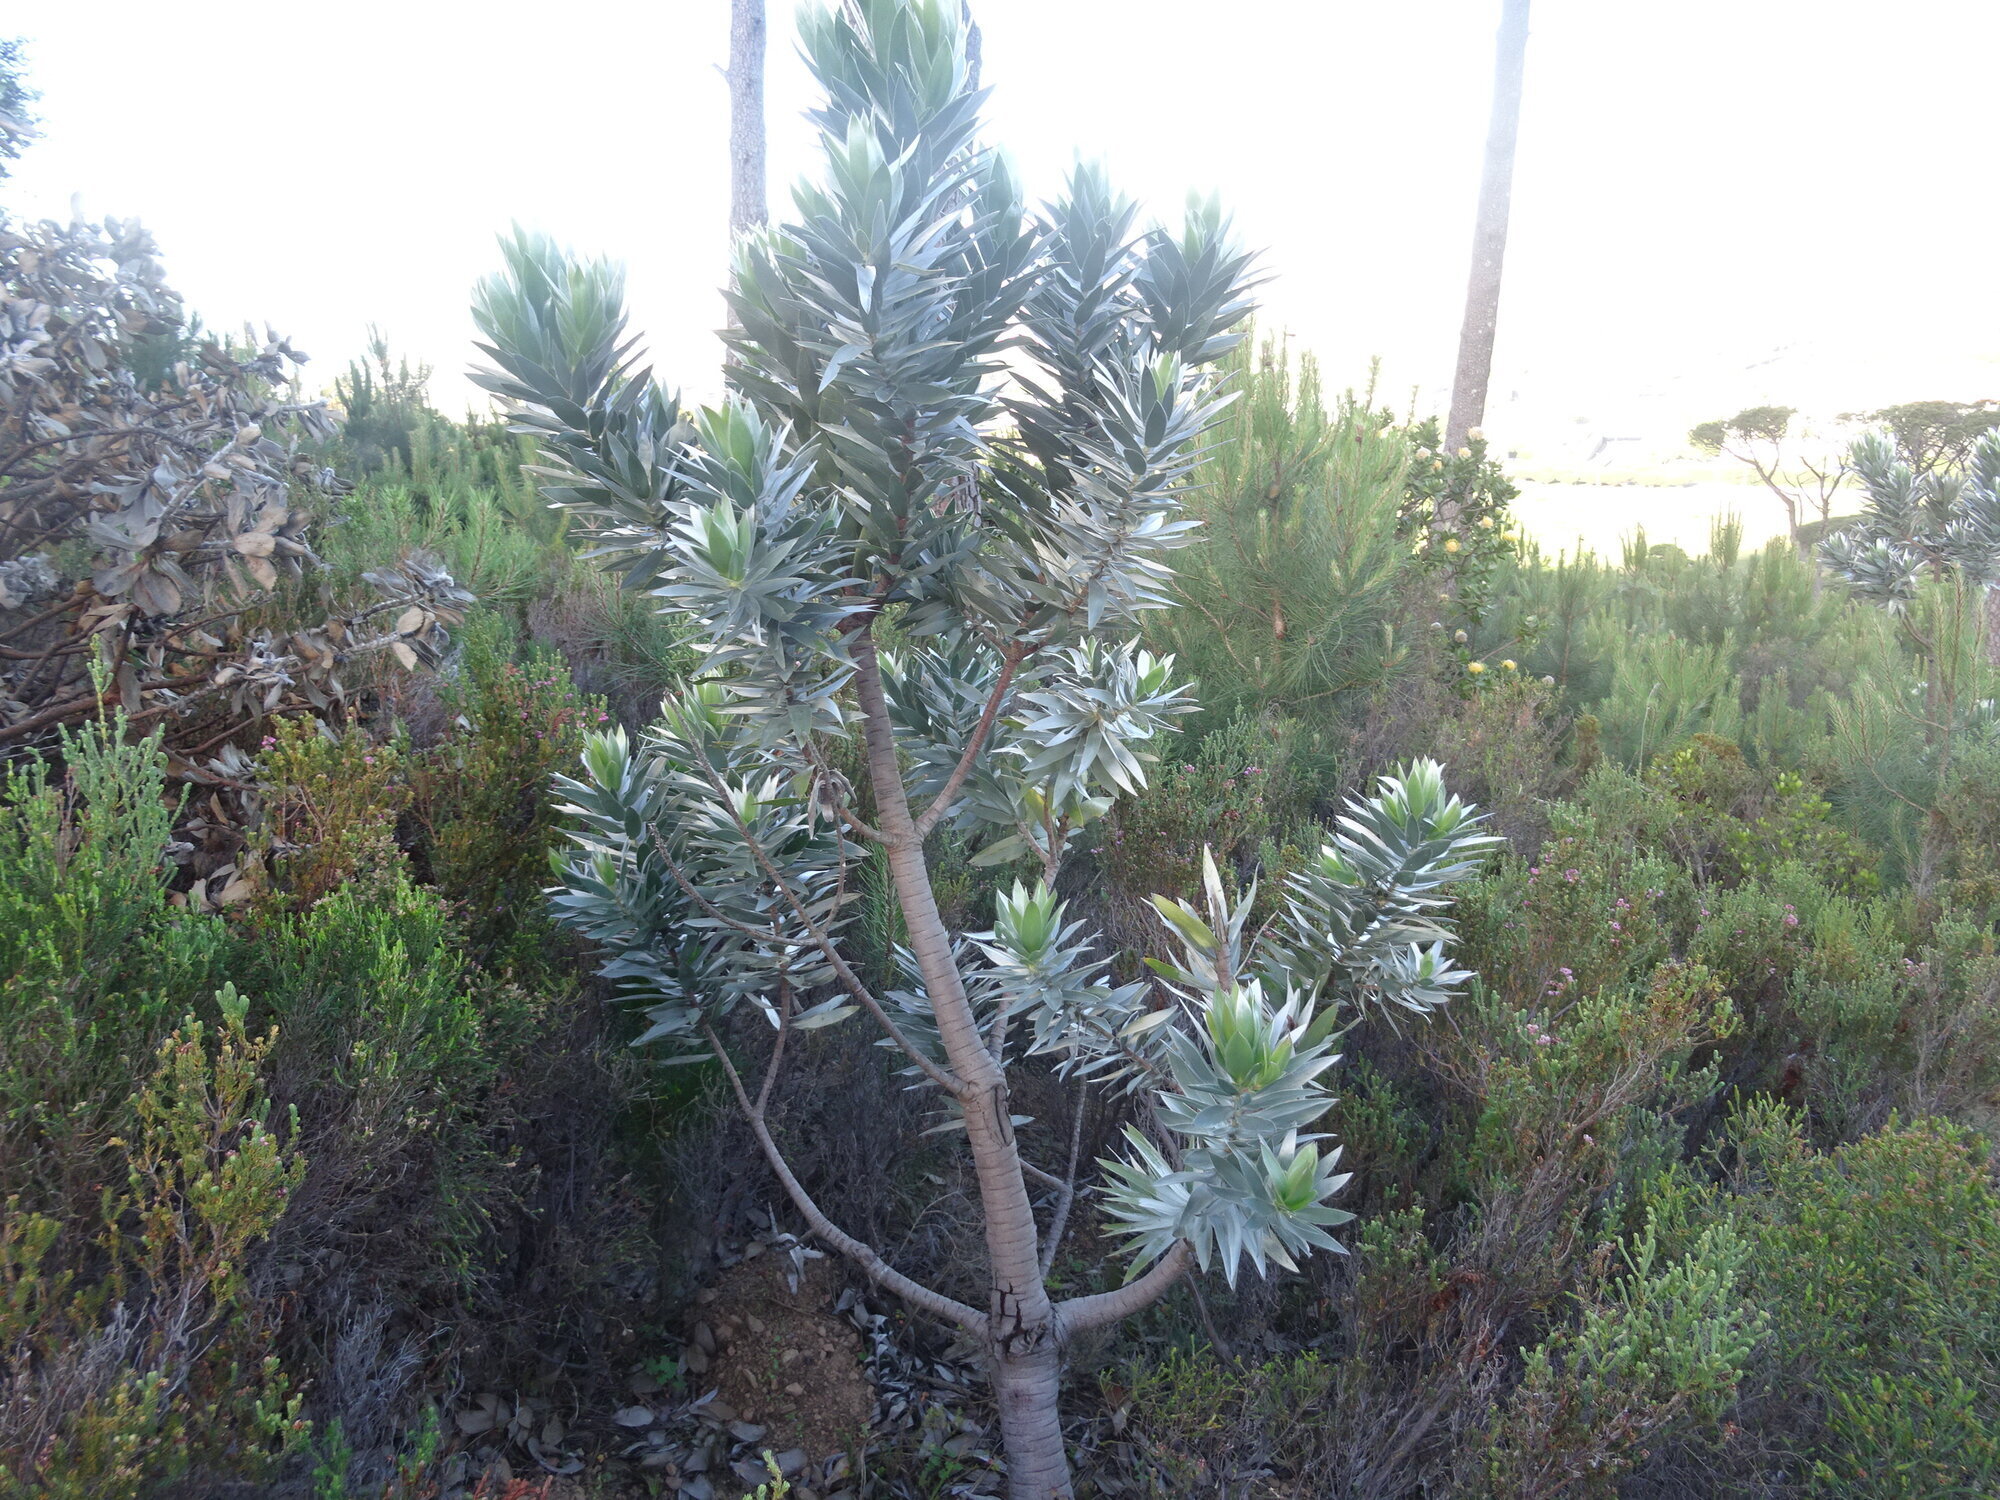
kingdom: Plantae
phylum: Tracheophyta
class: Magnoliopsida
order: Proteales
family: Proteaceae
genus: Leucadendron
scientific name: Leucadendron argenteum
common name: Cape silver tree
